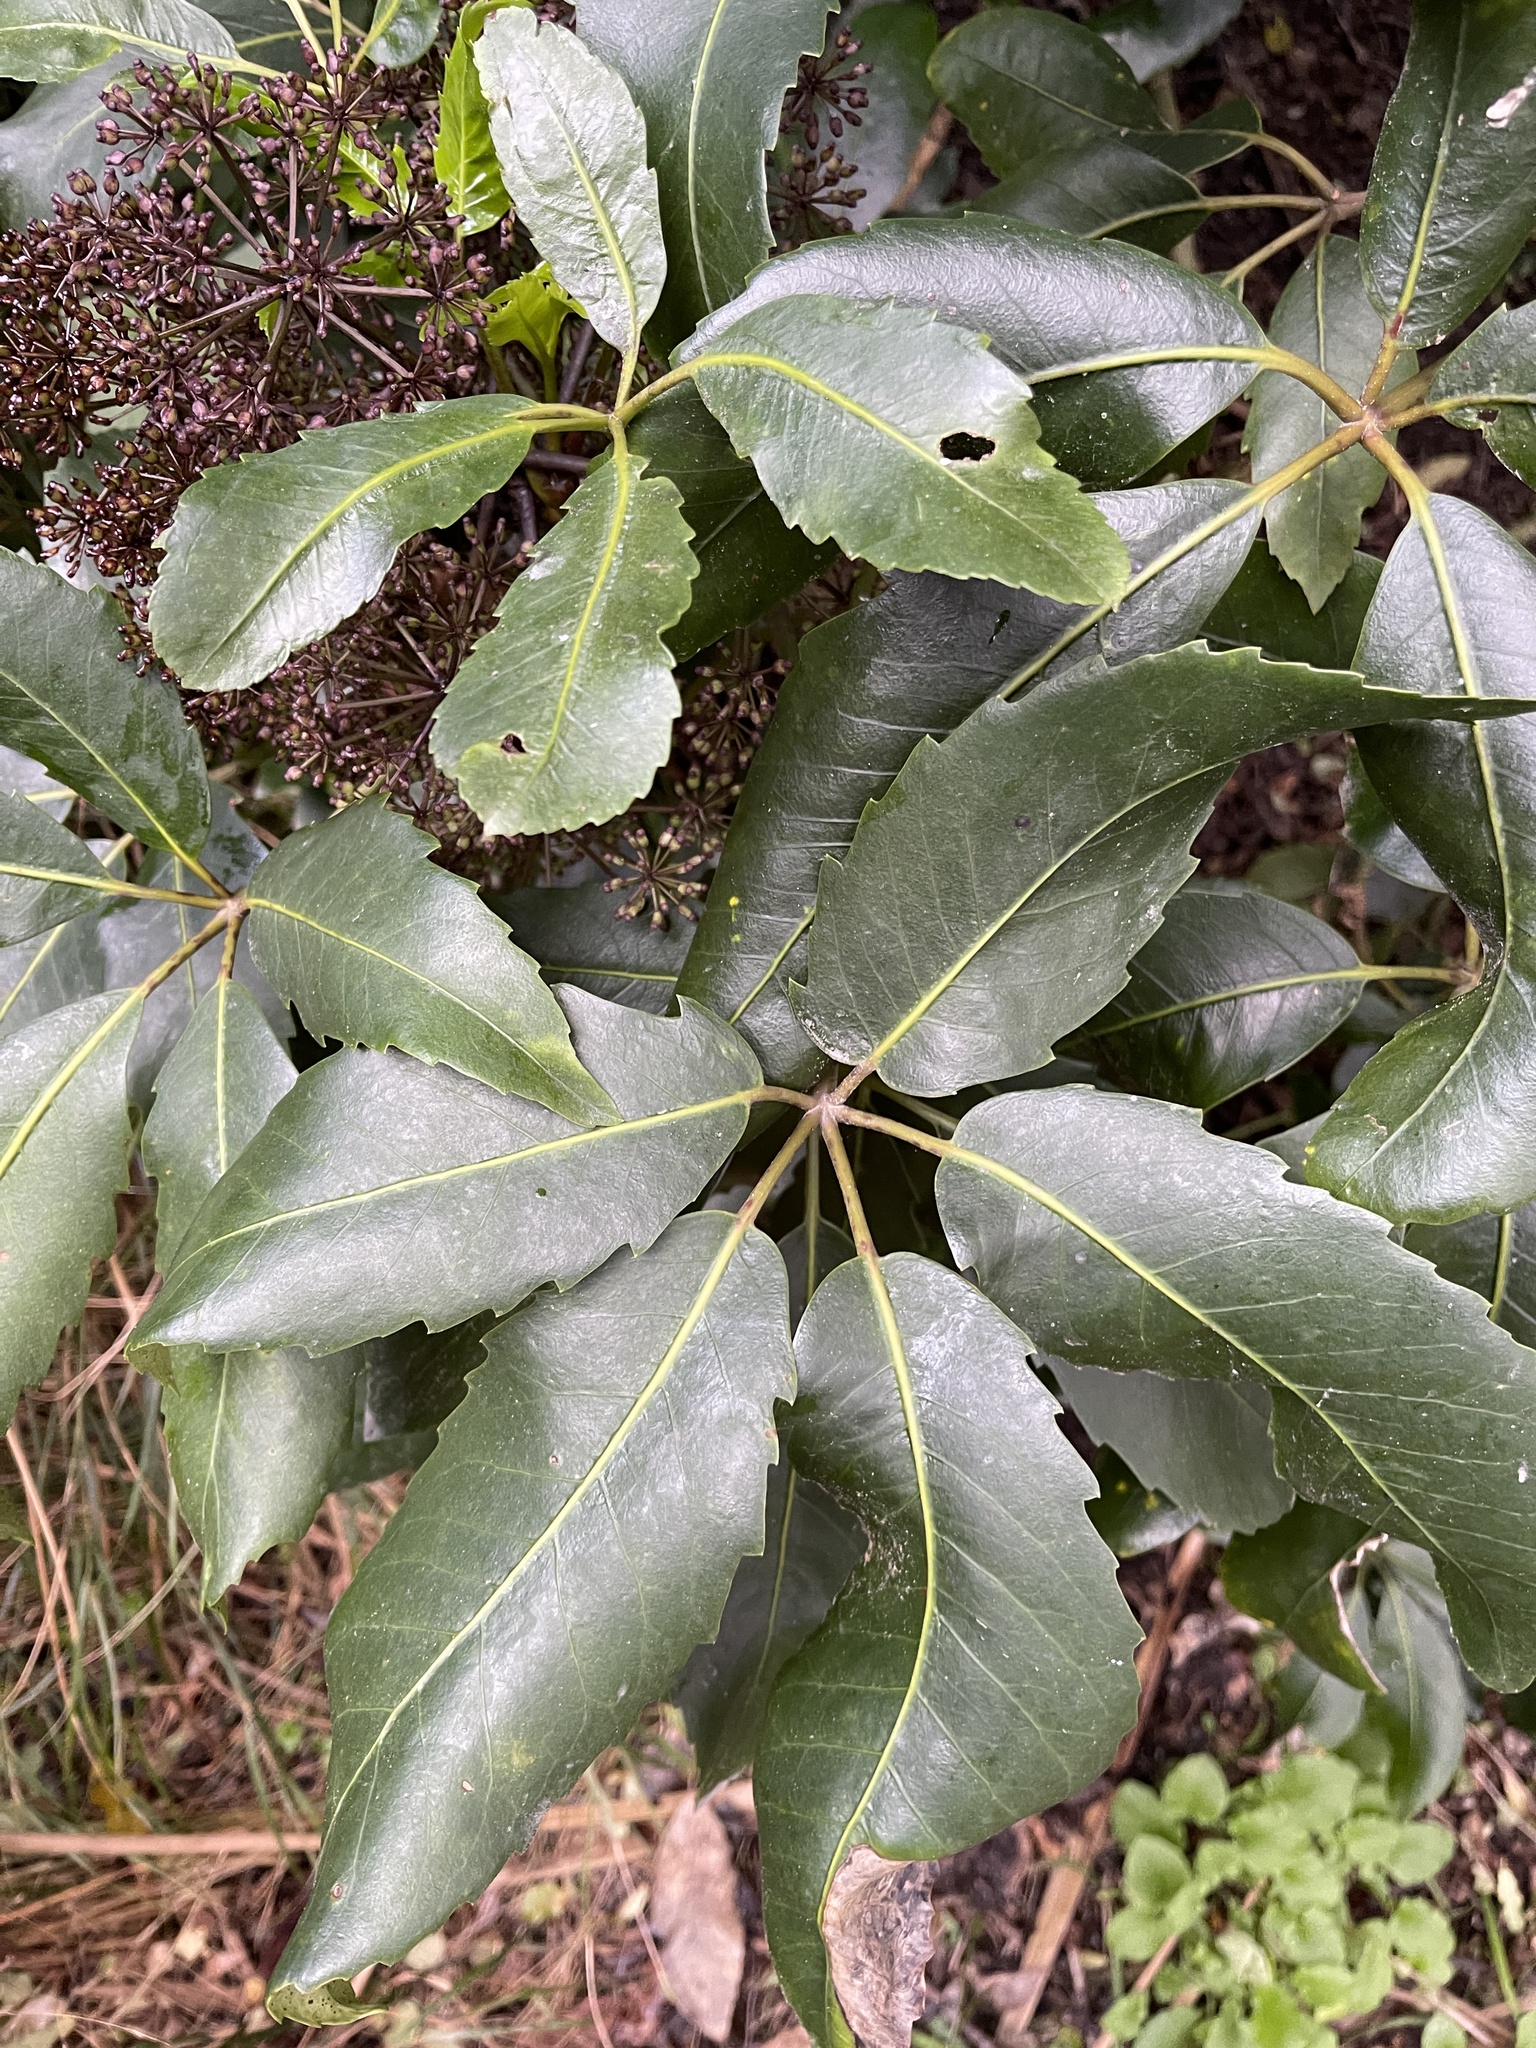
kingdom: Plantae
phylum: Tracheophyta
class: Magnoliopsida
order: Apiales
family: Araliaceae
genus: Neopanax
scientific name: Neopanax arboreus
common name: Five-fingers
